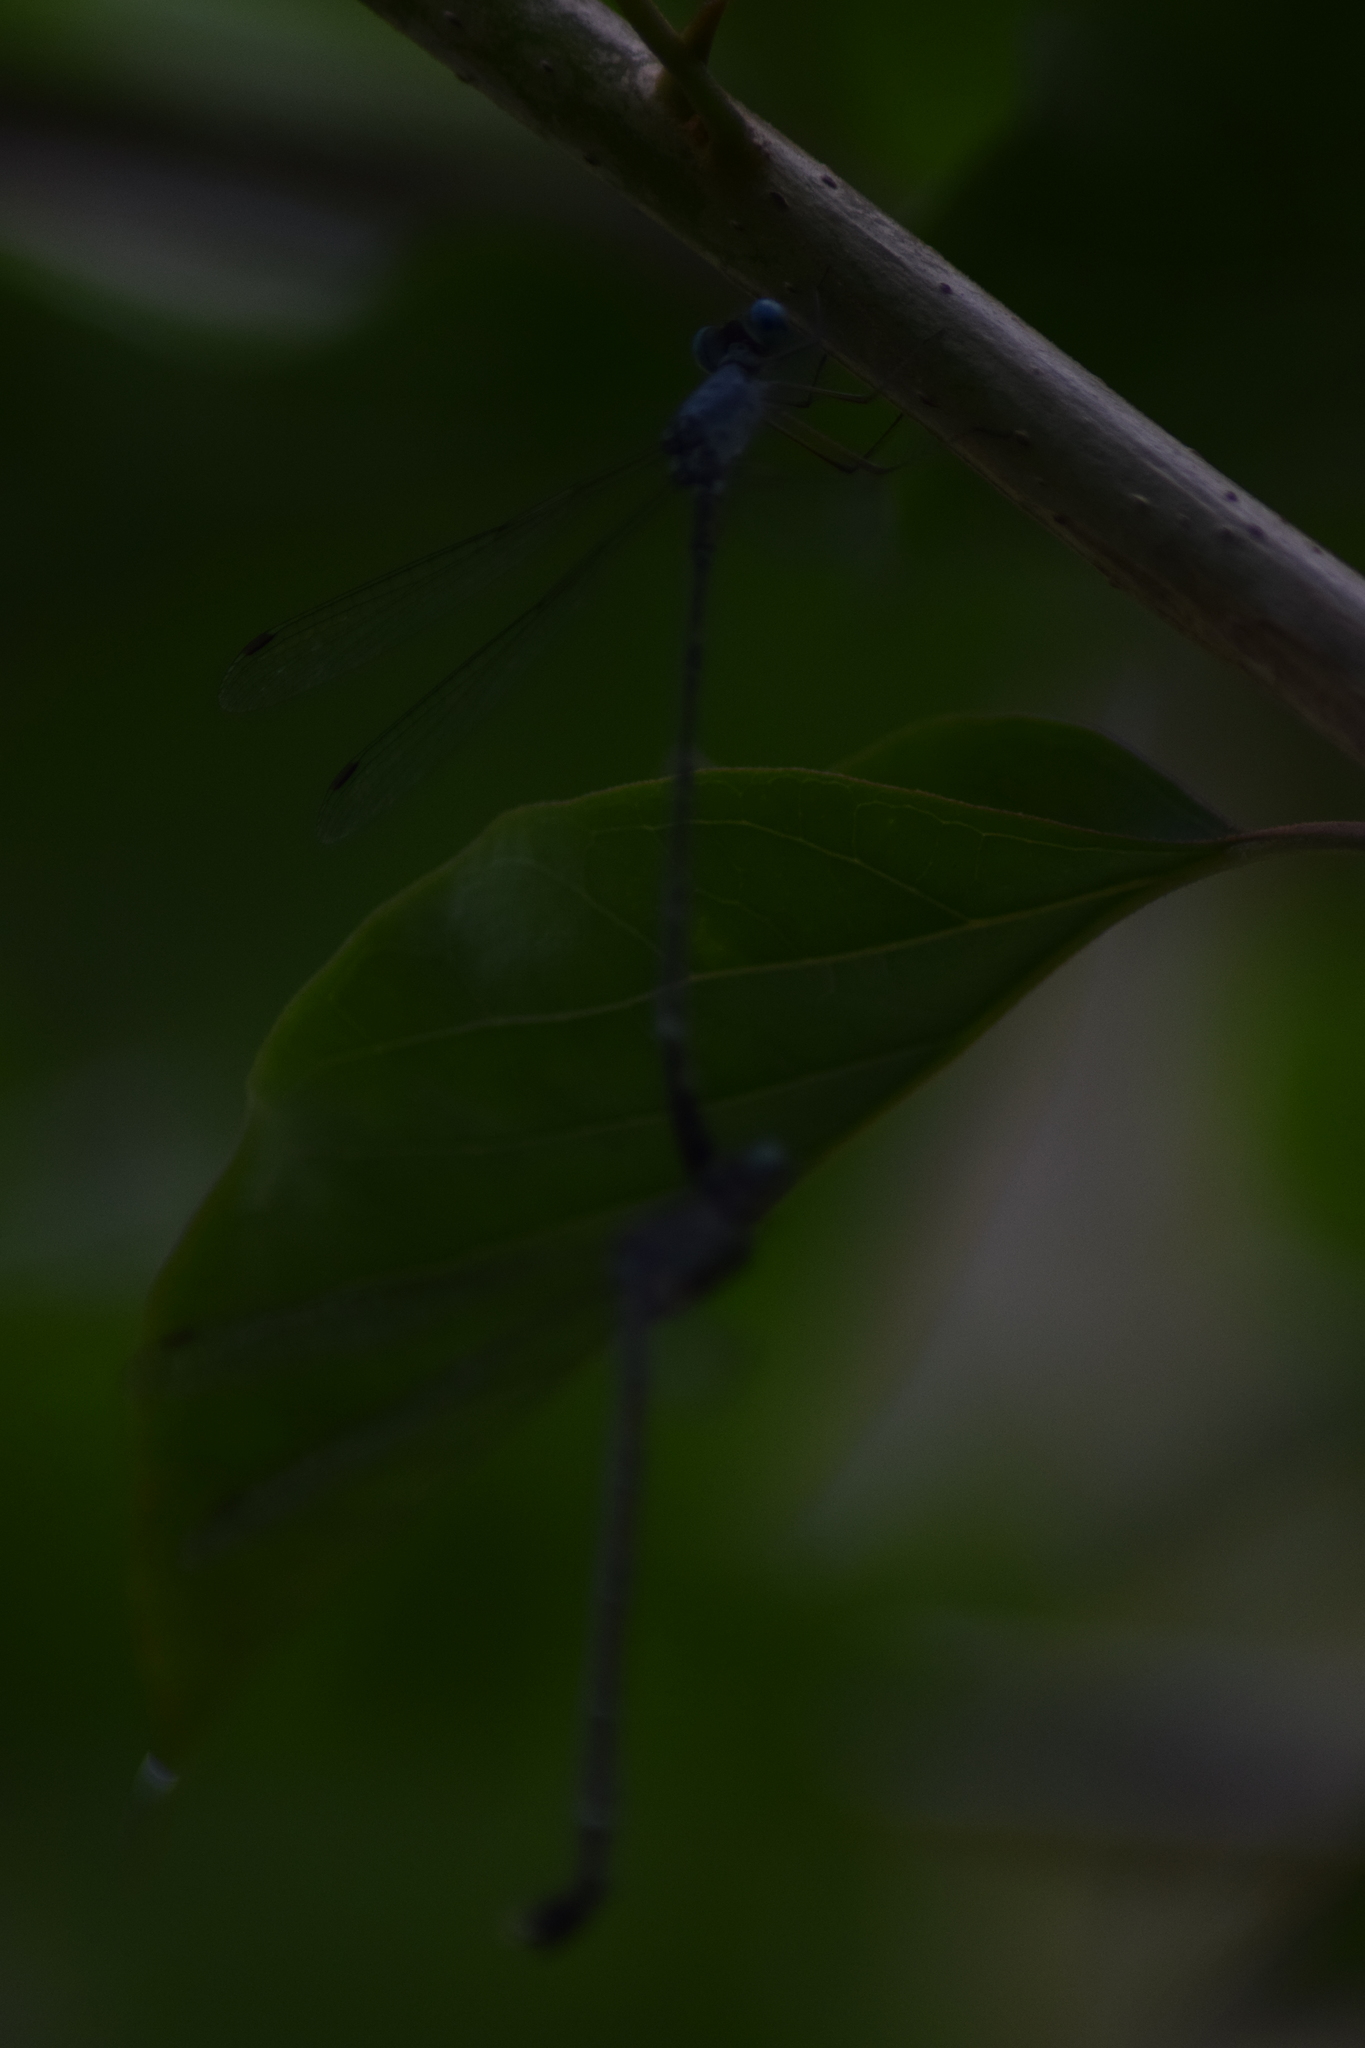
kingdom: Animalia
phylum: Arthropoda
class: Insecta
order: Odonata
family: Lestidae
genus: Lestes
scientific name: Lestes praemorsus
